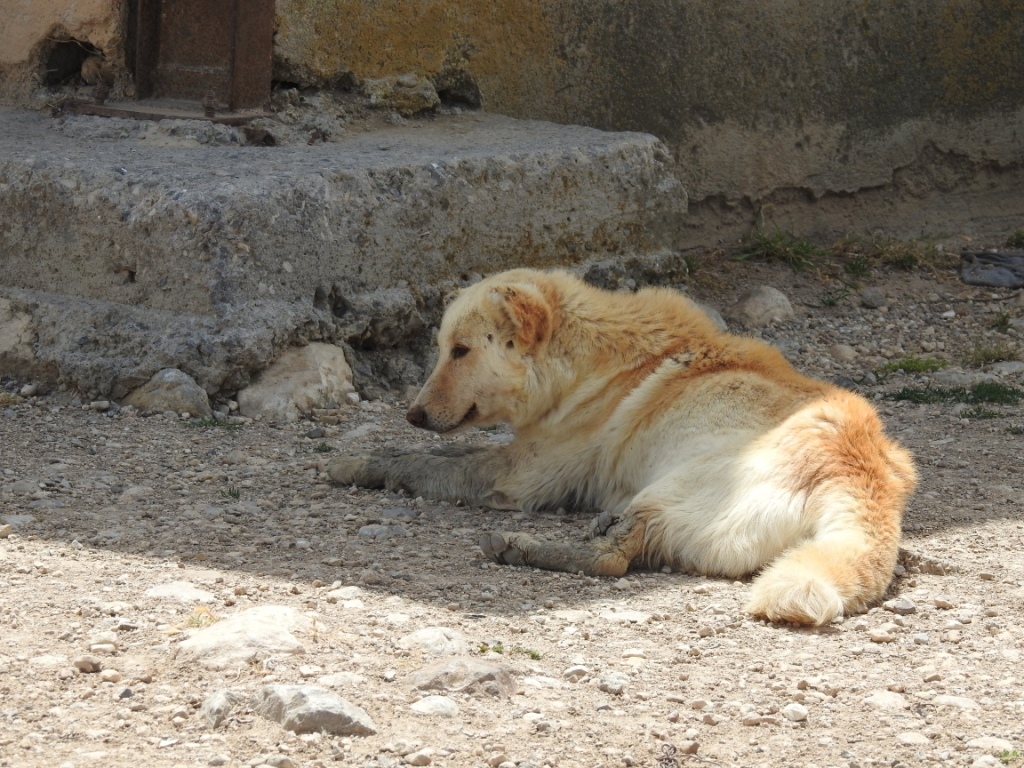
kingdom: Animalia
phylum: Chordata
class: Mammalia
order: Carnivora
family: Canidae
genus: Canis
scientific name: Canis lupus
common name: Gray wolf
